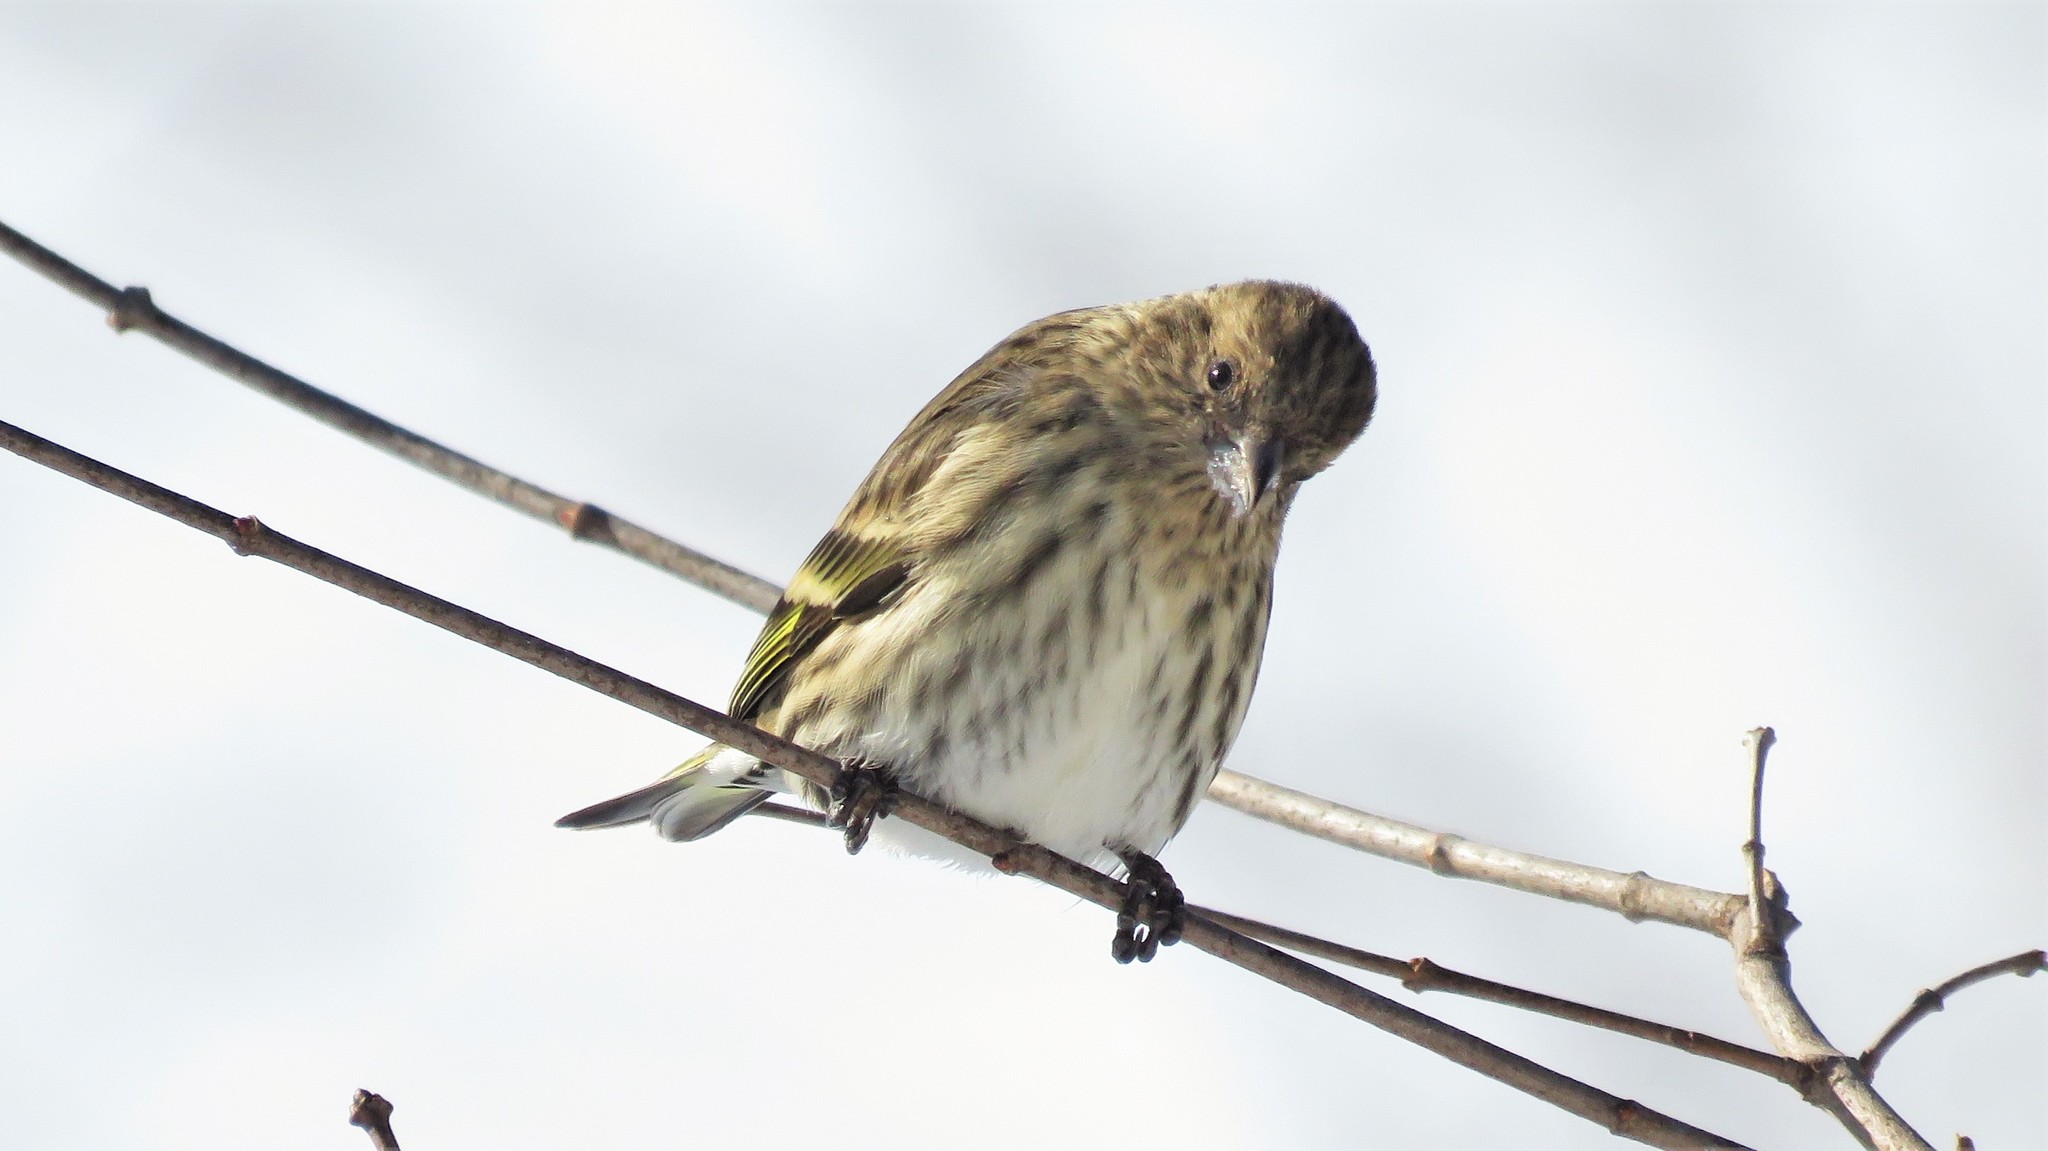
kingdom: Animalia
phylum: Chordata
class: Aves
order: Passeriformes
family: Fringillidae
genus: Spinus
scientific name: Spinus pinus
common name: Pine siskin
